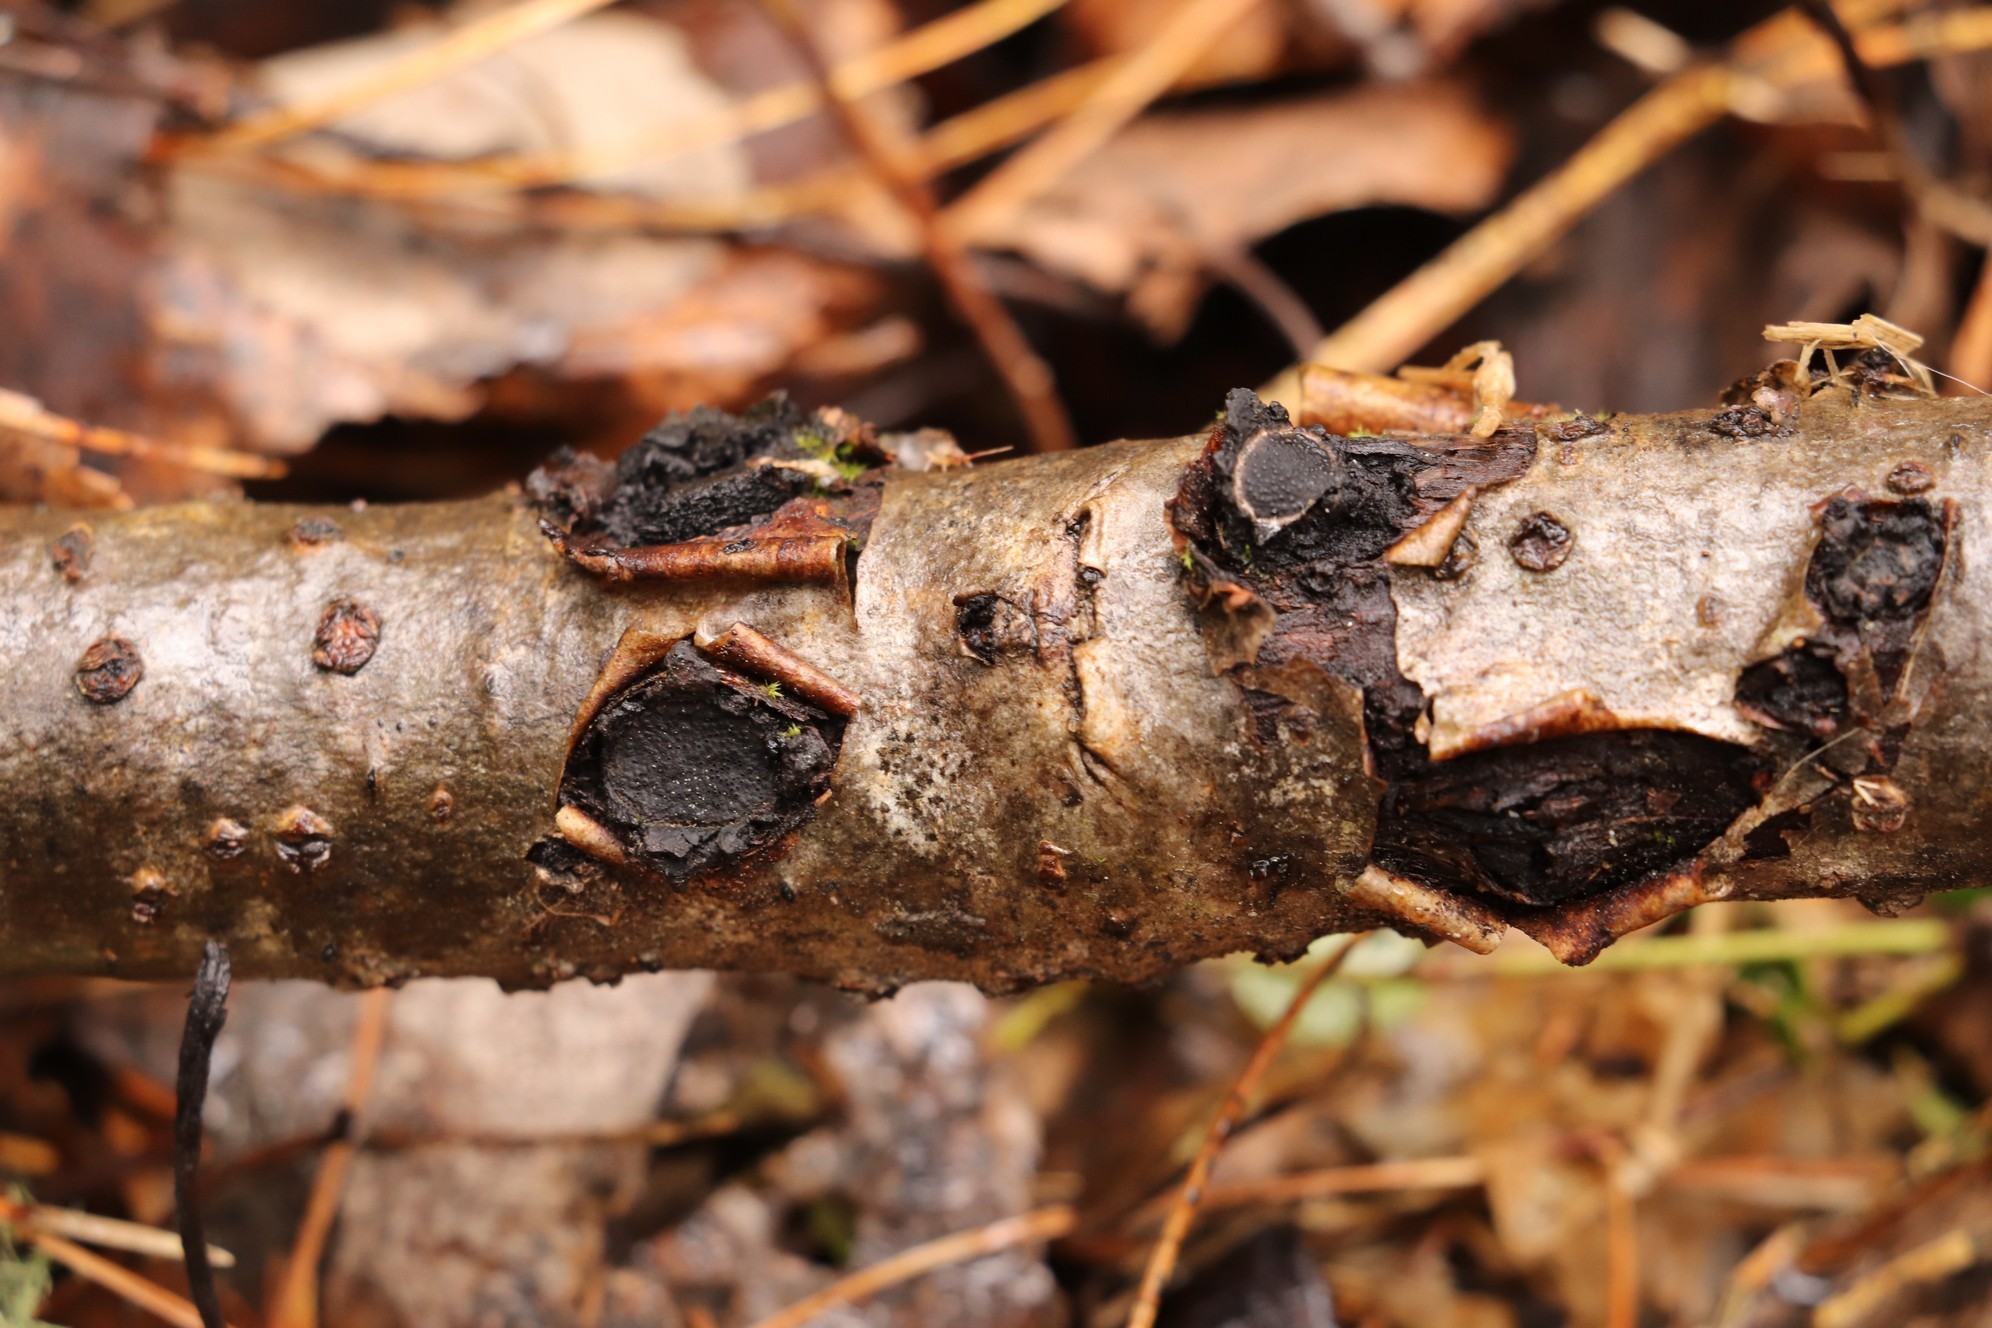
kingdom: Fungi
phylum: Ascomycota
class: Sordariomycetes
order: Xylariales
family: Graphostromataceae
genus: Biscogniauxia
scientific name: Biscogniauxia repanda
